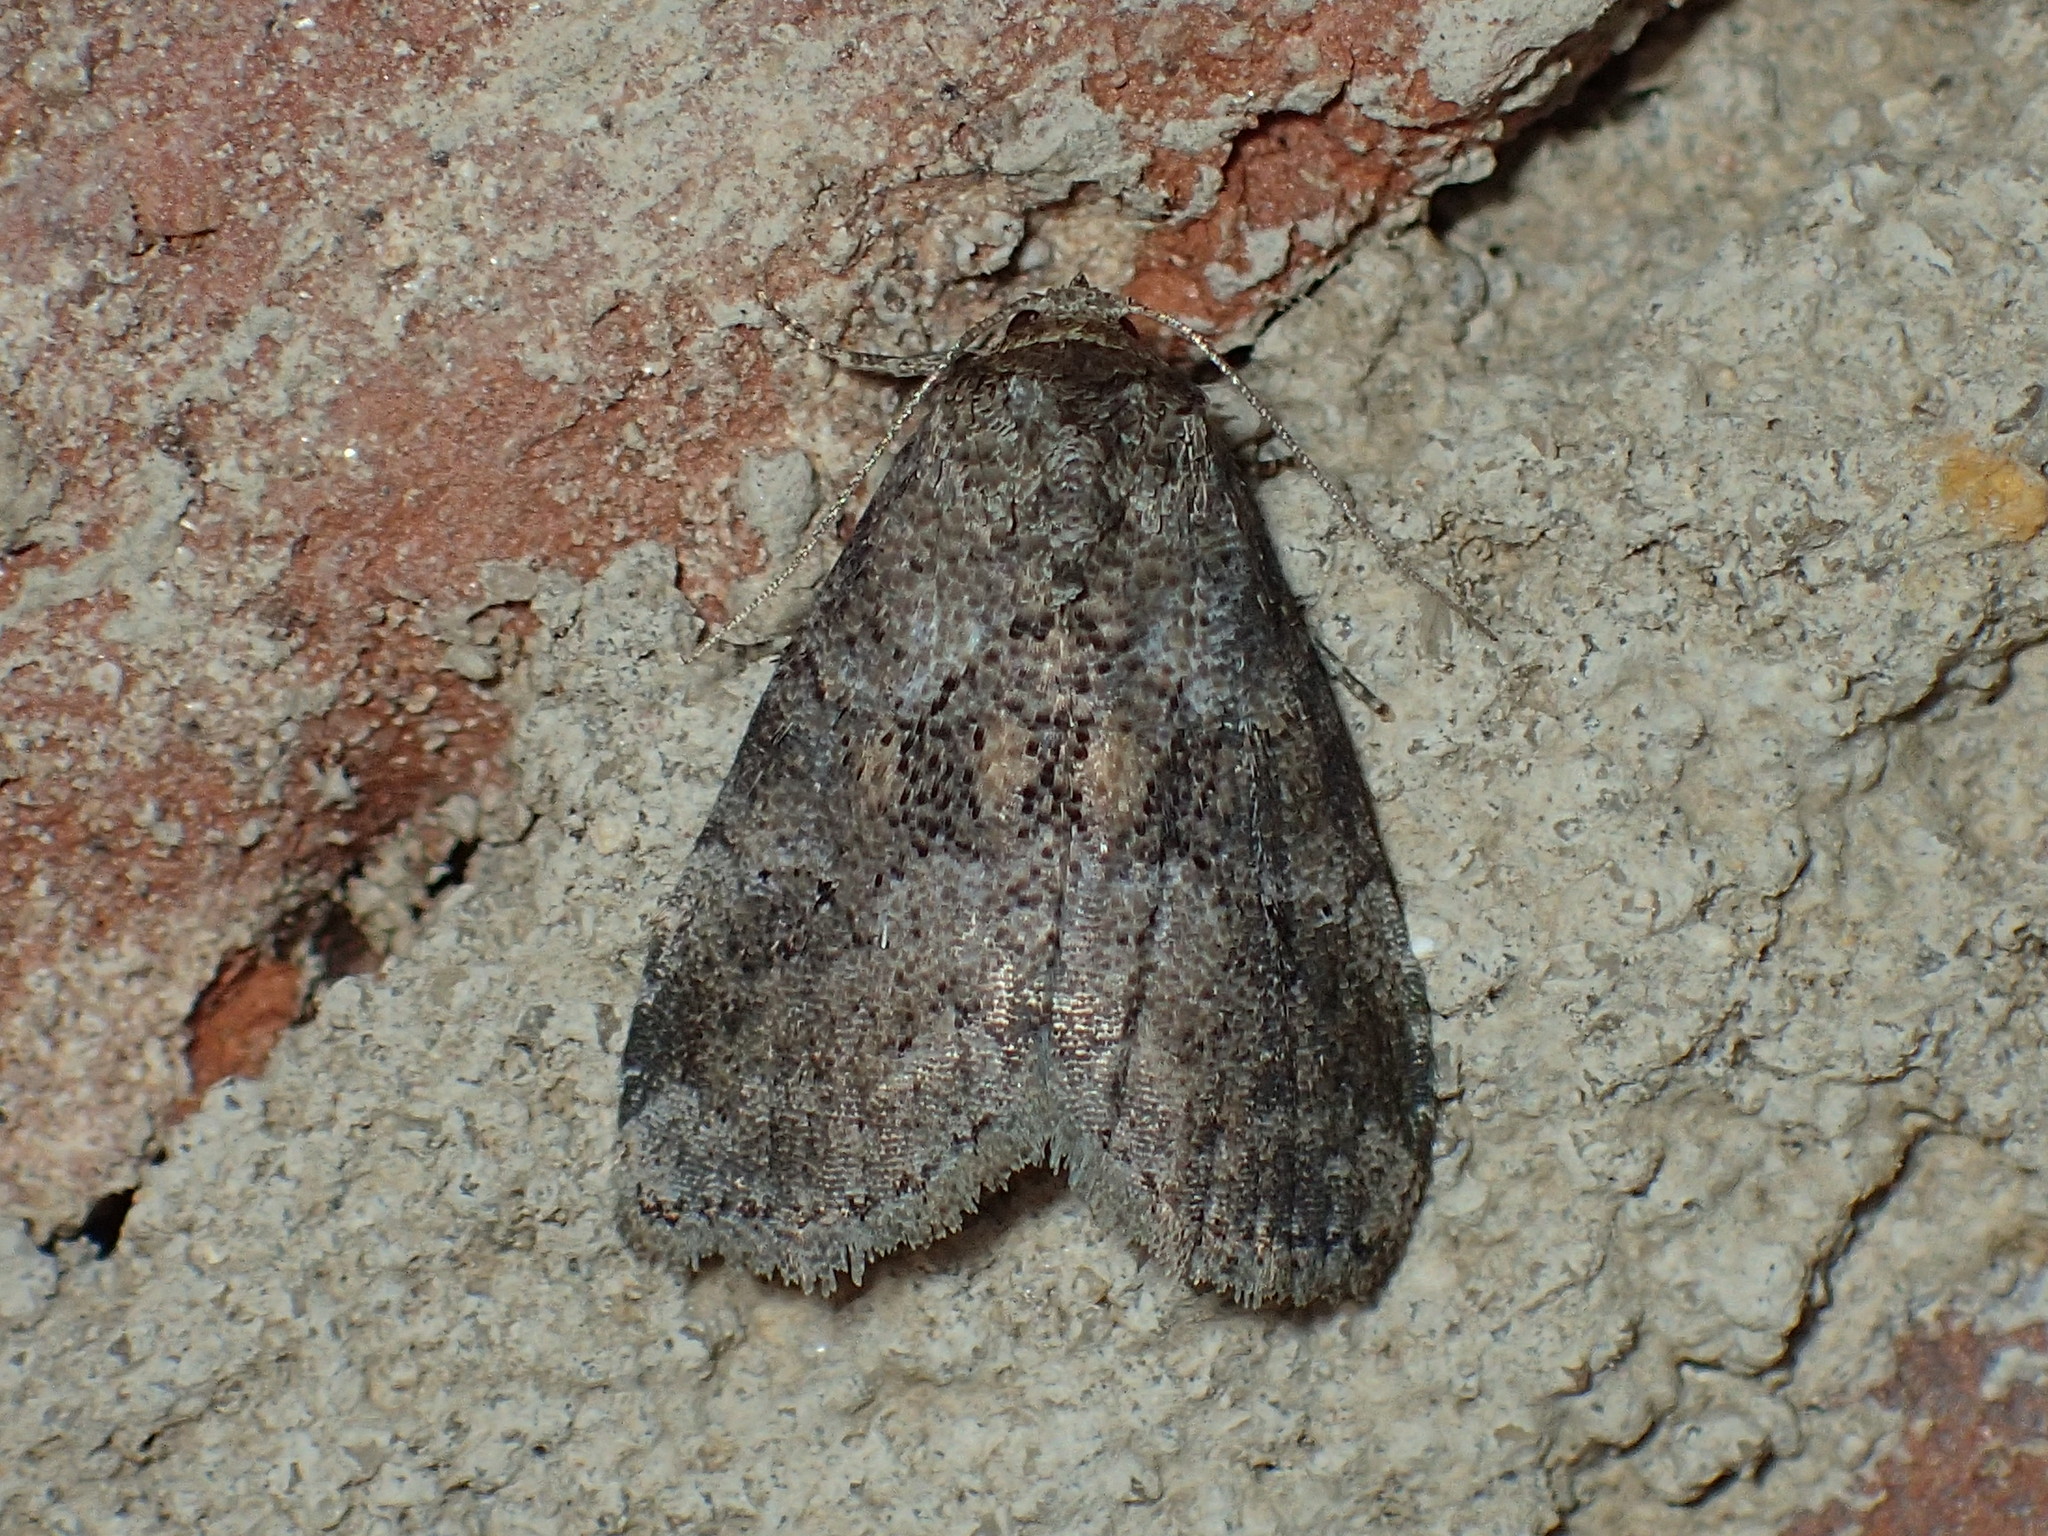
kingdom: Animalia
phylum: Arthropoda
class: Insecta
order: Lepidoptera
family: Erebidae
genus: Hyperstrotia
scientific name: Hyperstrotia nana
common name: White-lined graylet
